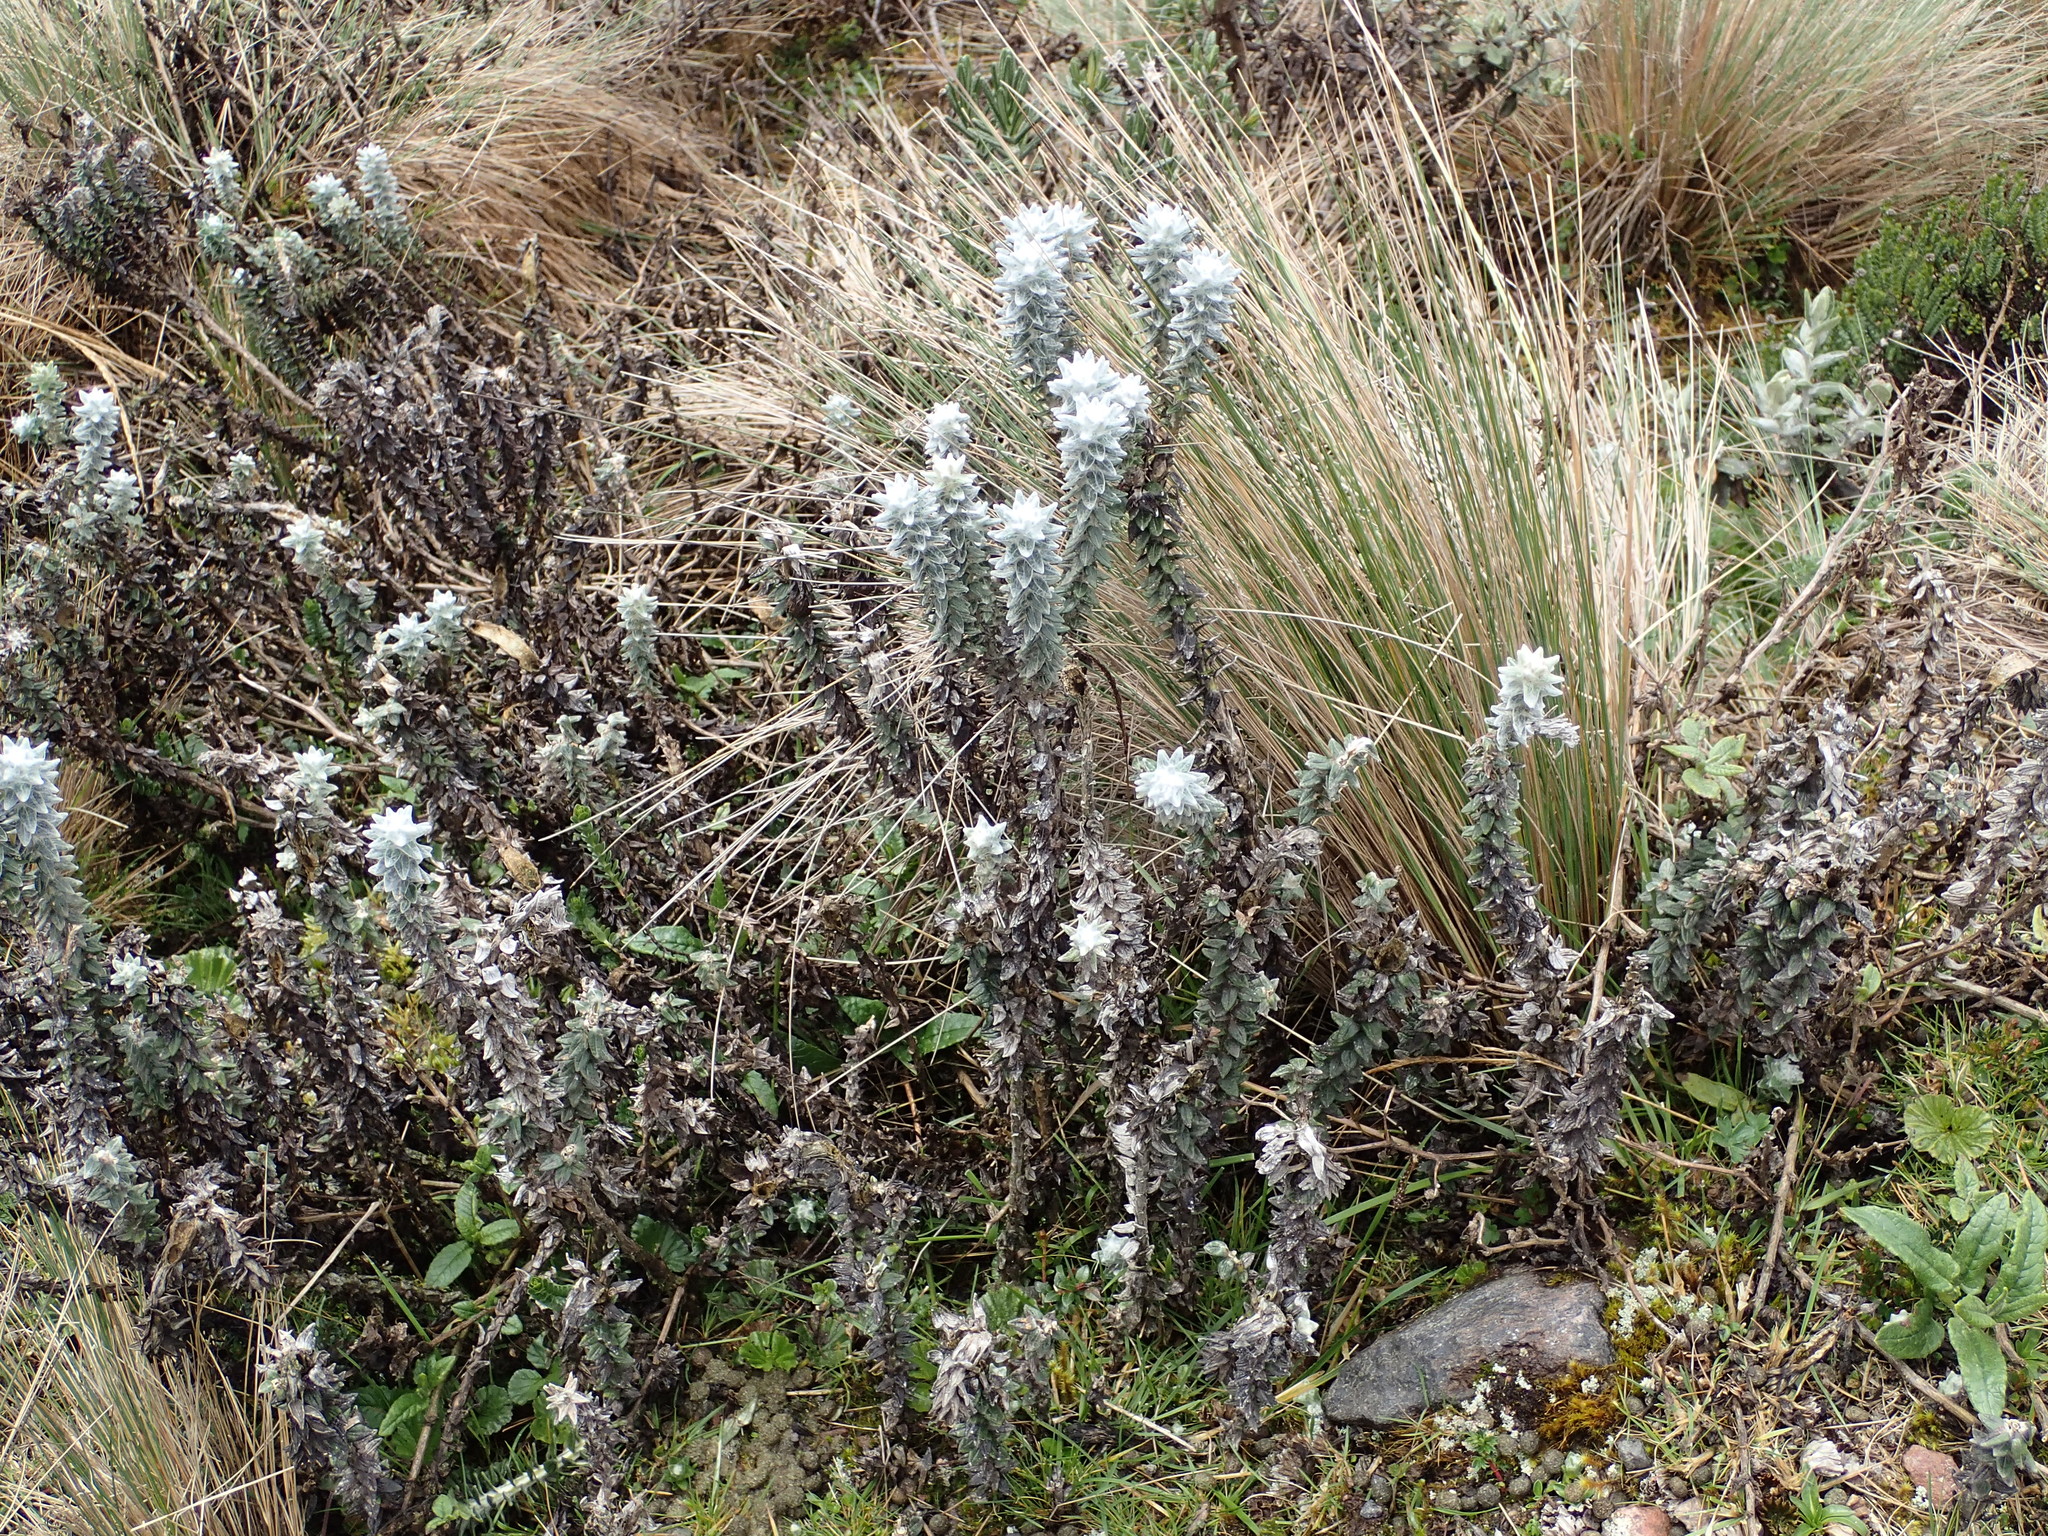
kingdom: Plantae
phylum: Tracheophyta
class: Magnoliopsida
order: Asterales
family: Asteraceae
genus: Lasiocephalus
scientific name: Lasiocephalus ovatus
